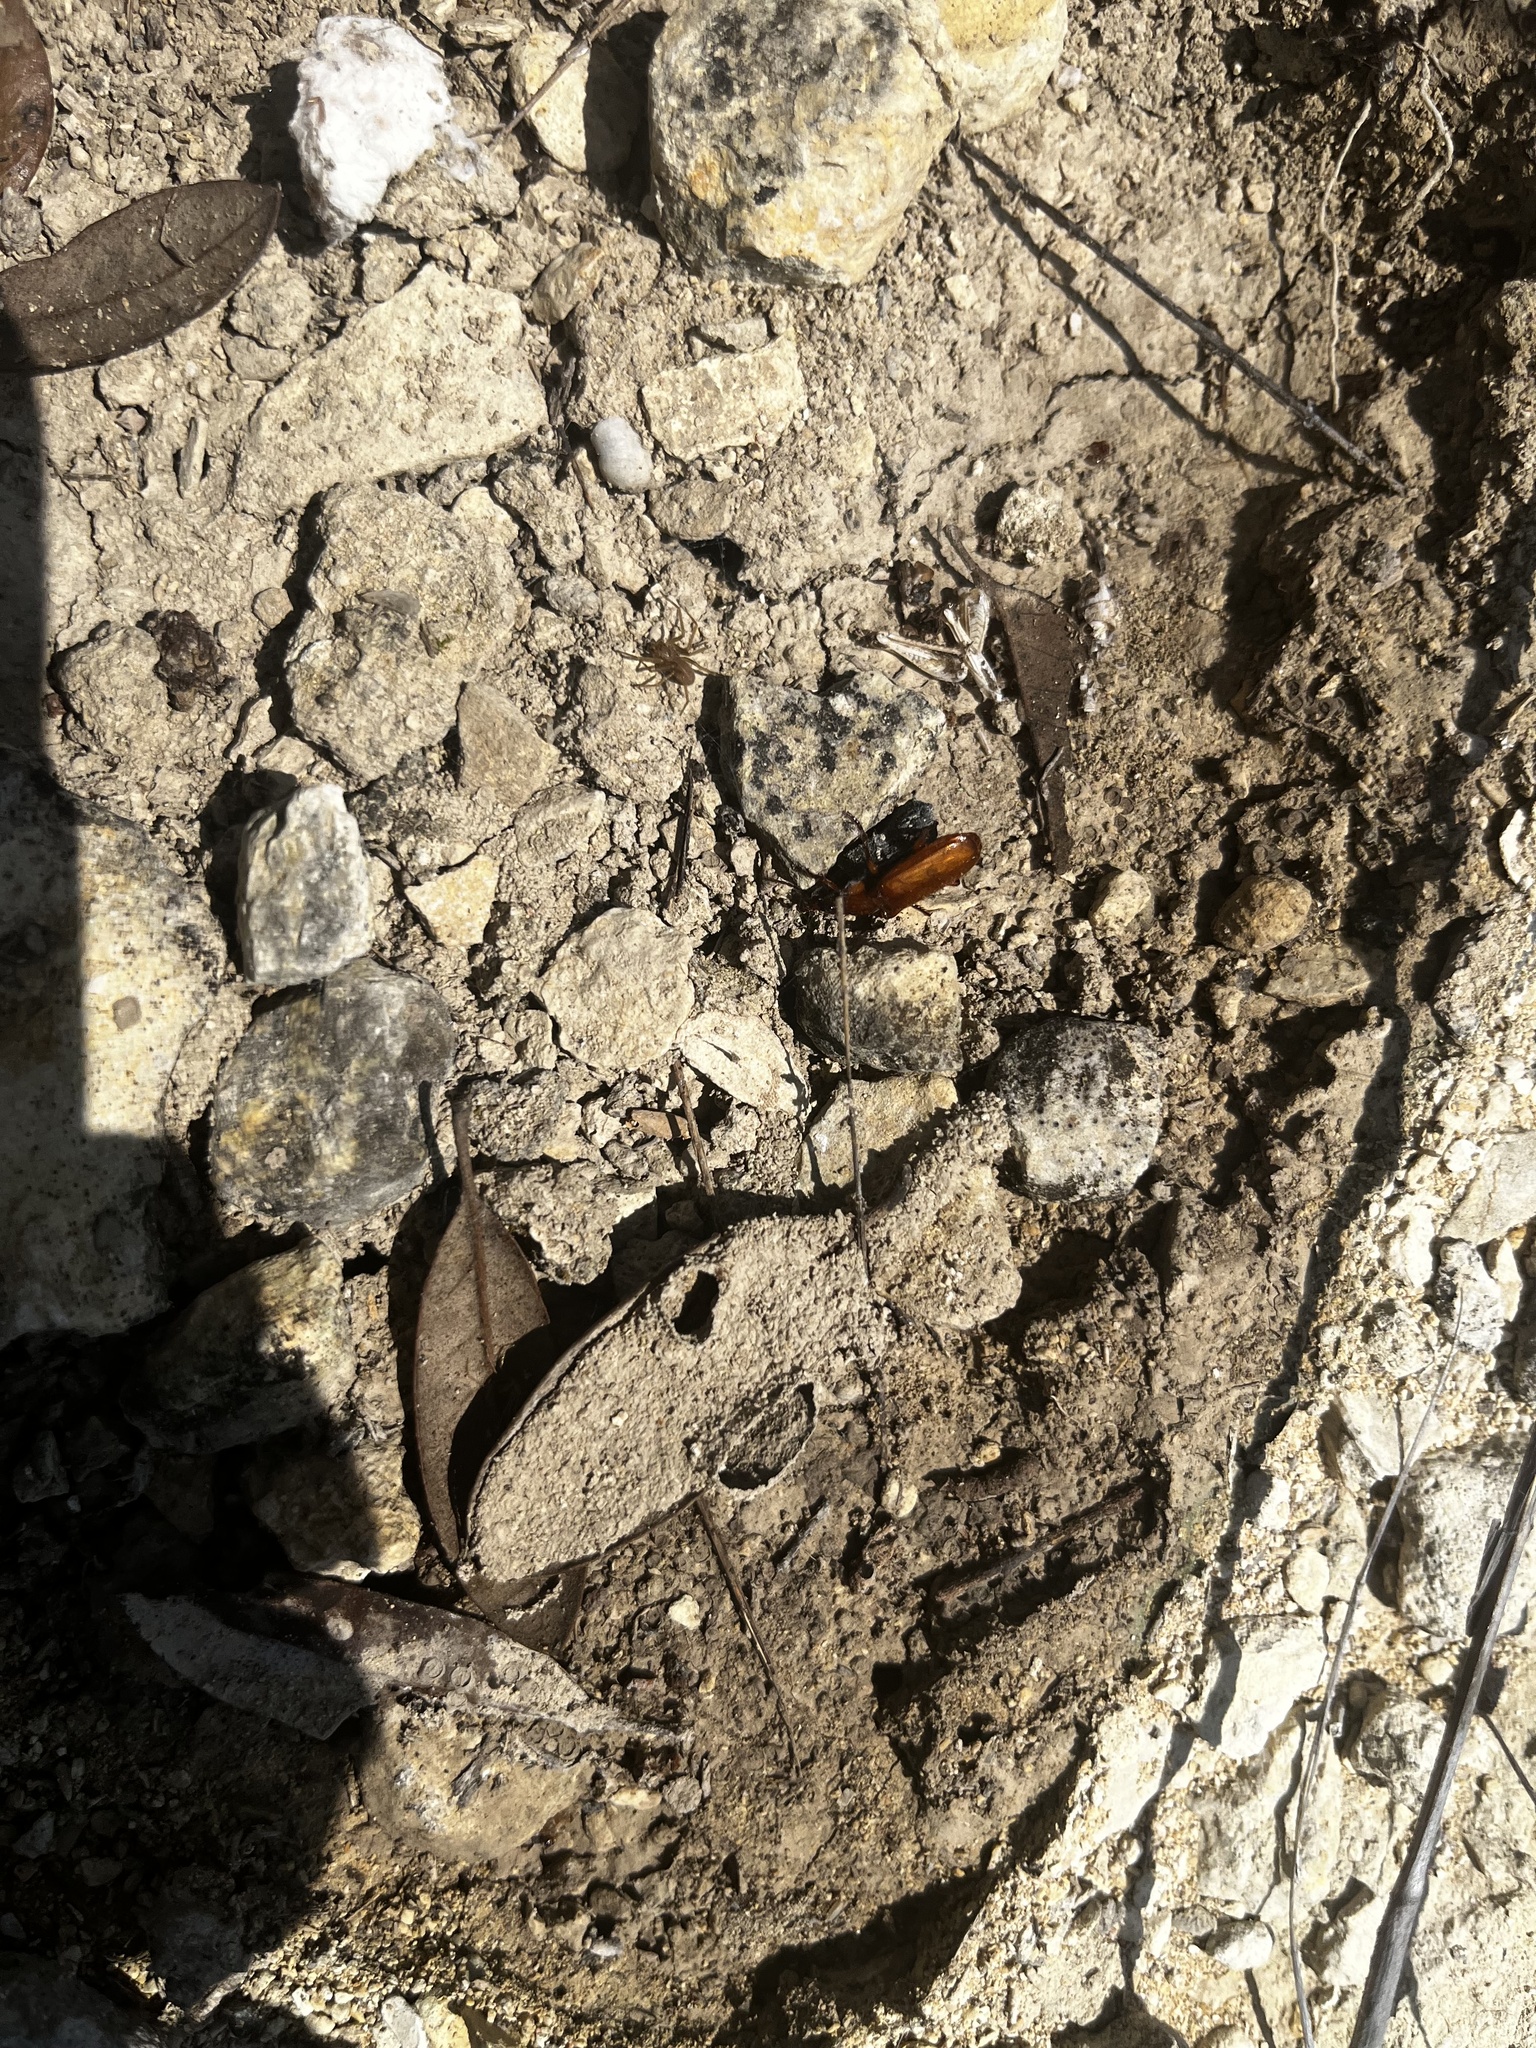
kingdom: Animalia
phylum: Arthropoda
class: Insecta
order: Coleoptera
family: Carabidae
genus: Helluomorphoides
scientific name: Helluomorphoides
